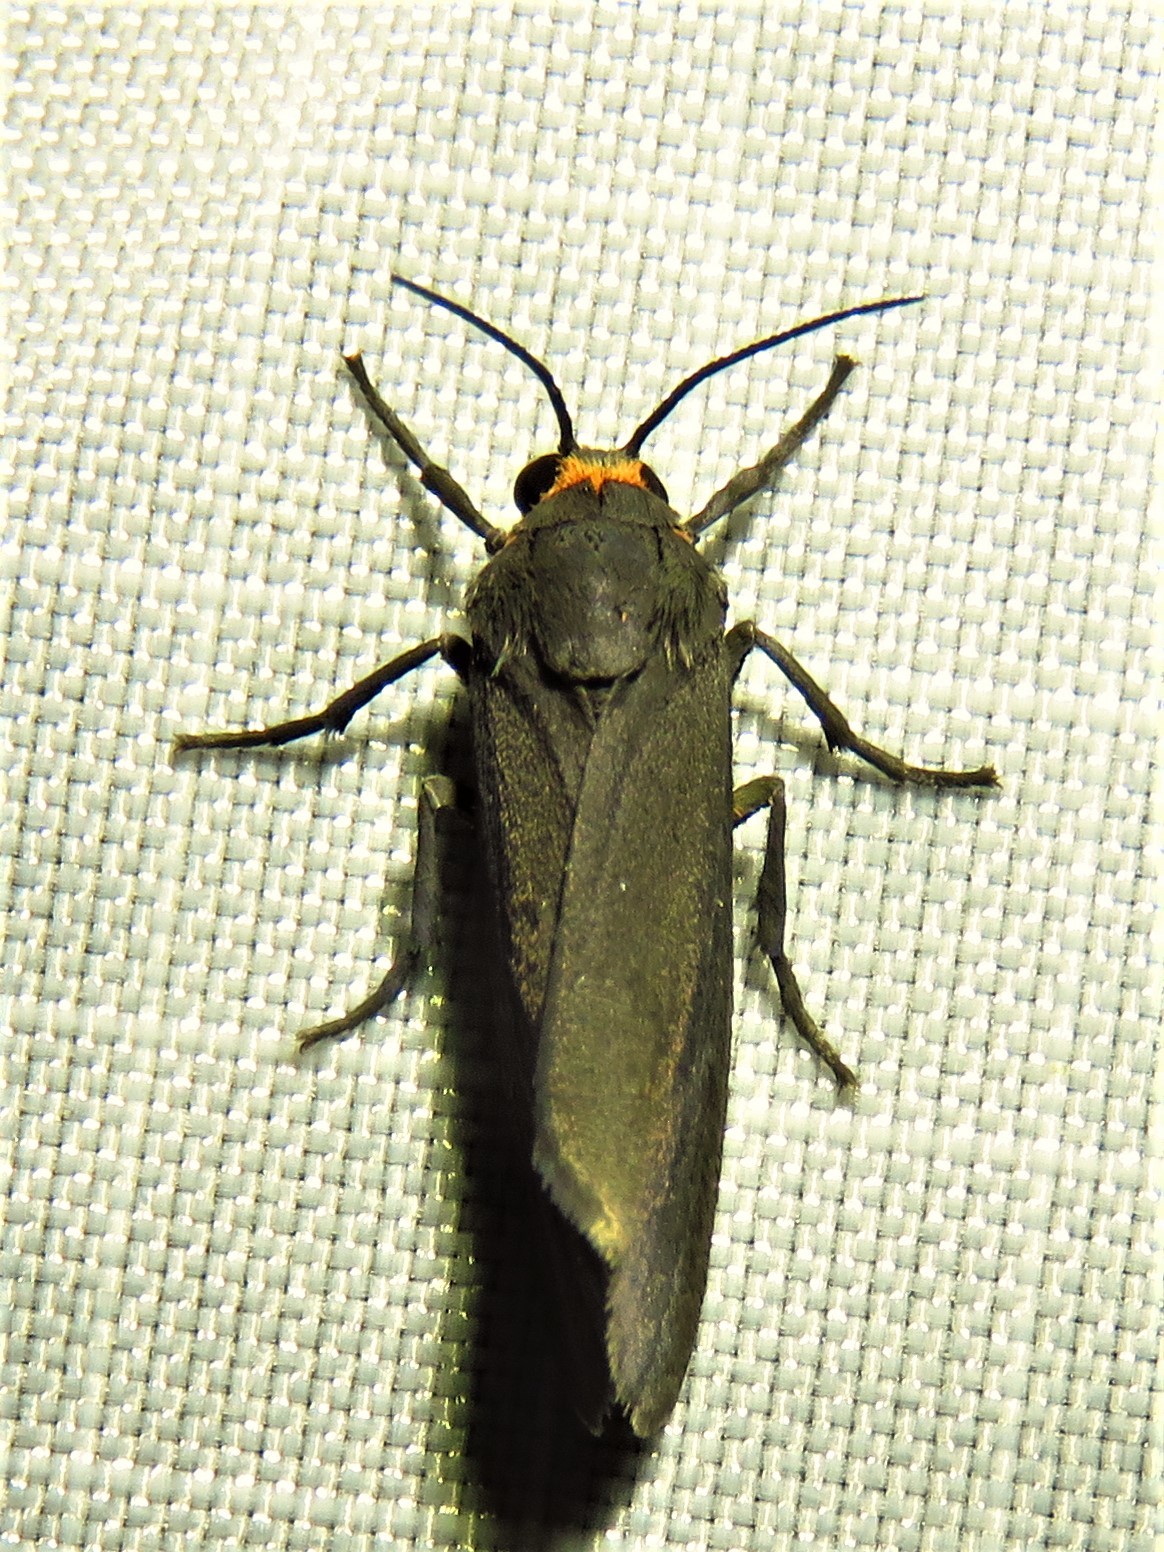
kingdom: Animalia
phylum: Arthropoda
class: Insecta
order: Lepidoptera
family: Erebidae
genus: Cisseps
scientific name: Cisseps fulvicollis
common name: Yellow-collared scape moth
